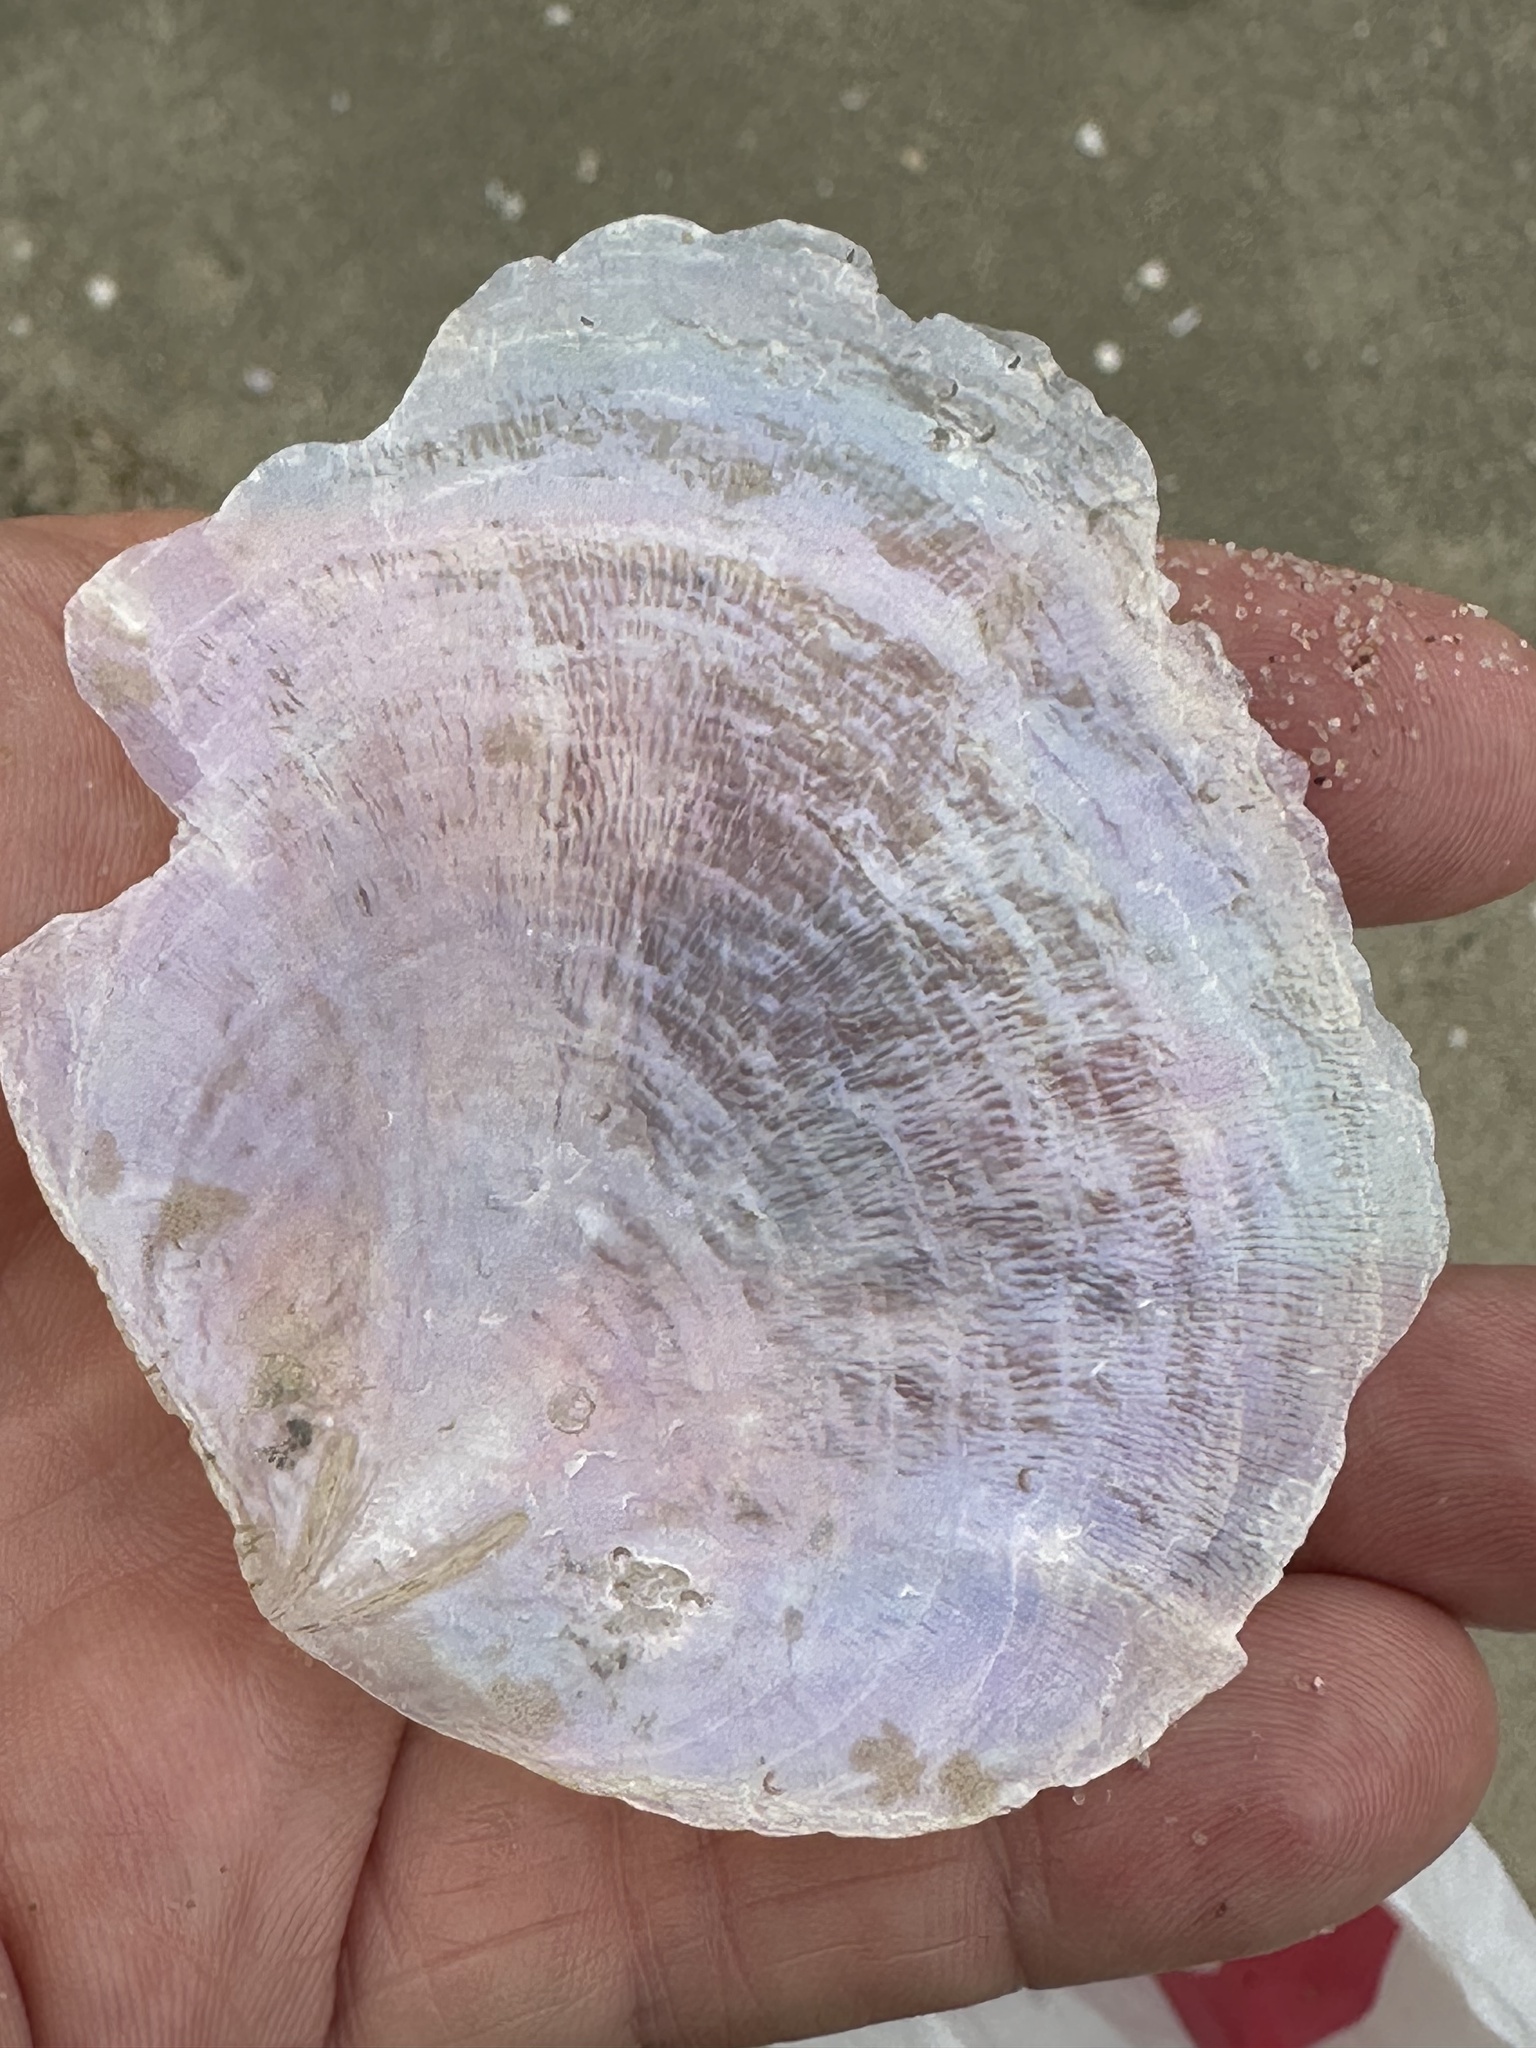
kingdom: Animalia
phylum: Mollusca
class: Bivalvia
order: Pectinida
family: Placunidae
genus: Placuna
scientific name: Placuna placenta
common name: Jingle shell
